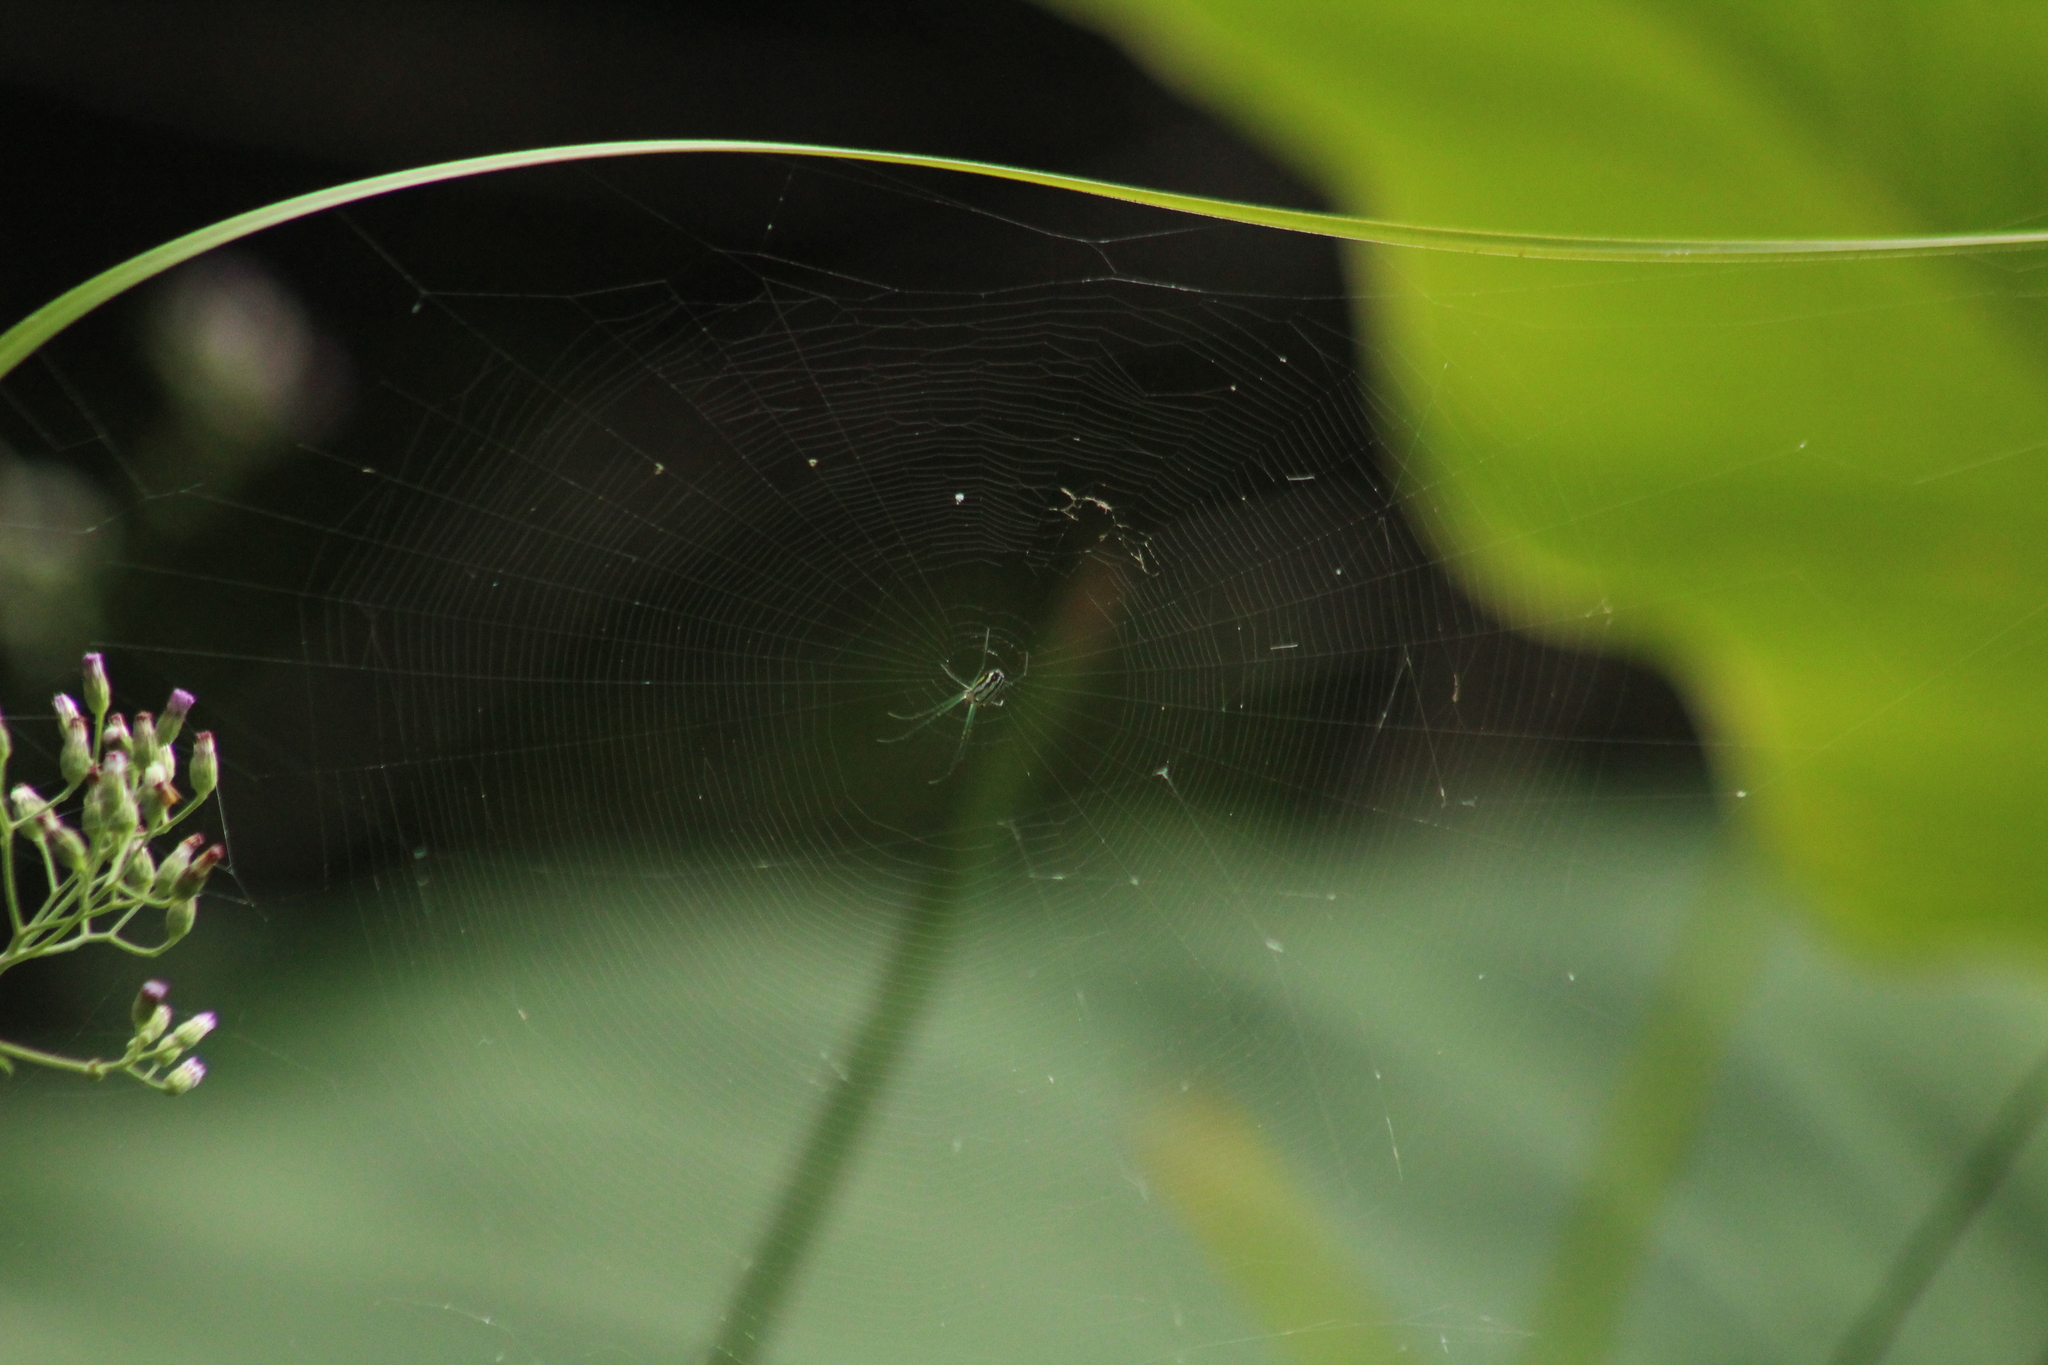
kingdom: Animalia
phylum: Arthropoda
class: Arachnida
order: Araneae
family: Tetragnathidae
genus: Leucauge
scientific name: Leucauge regnyi
